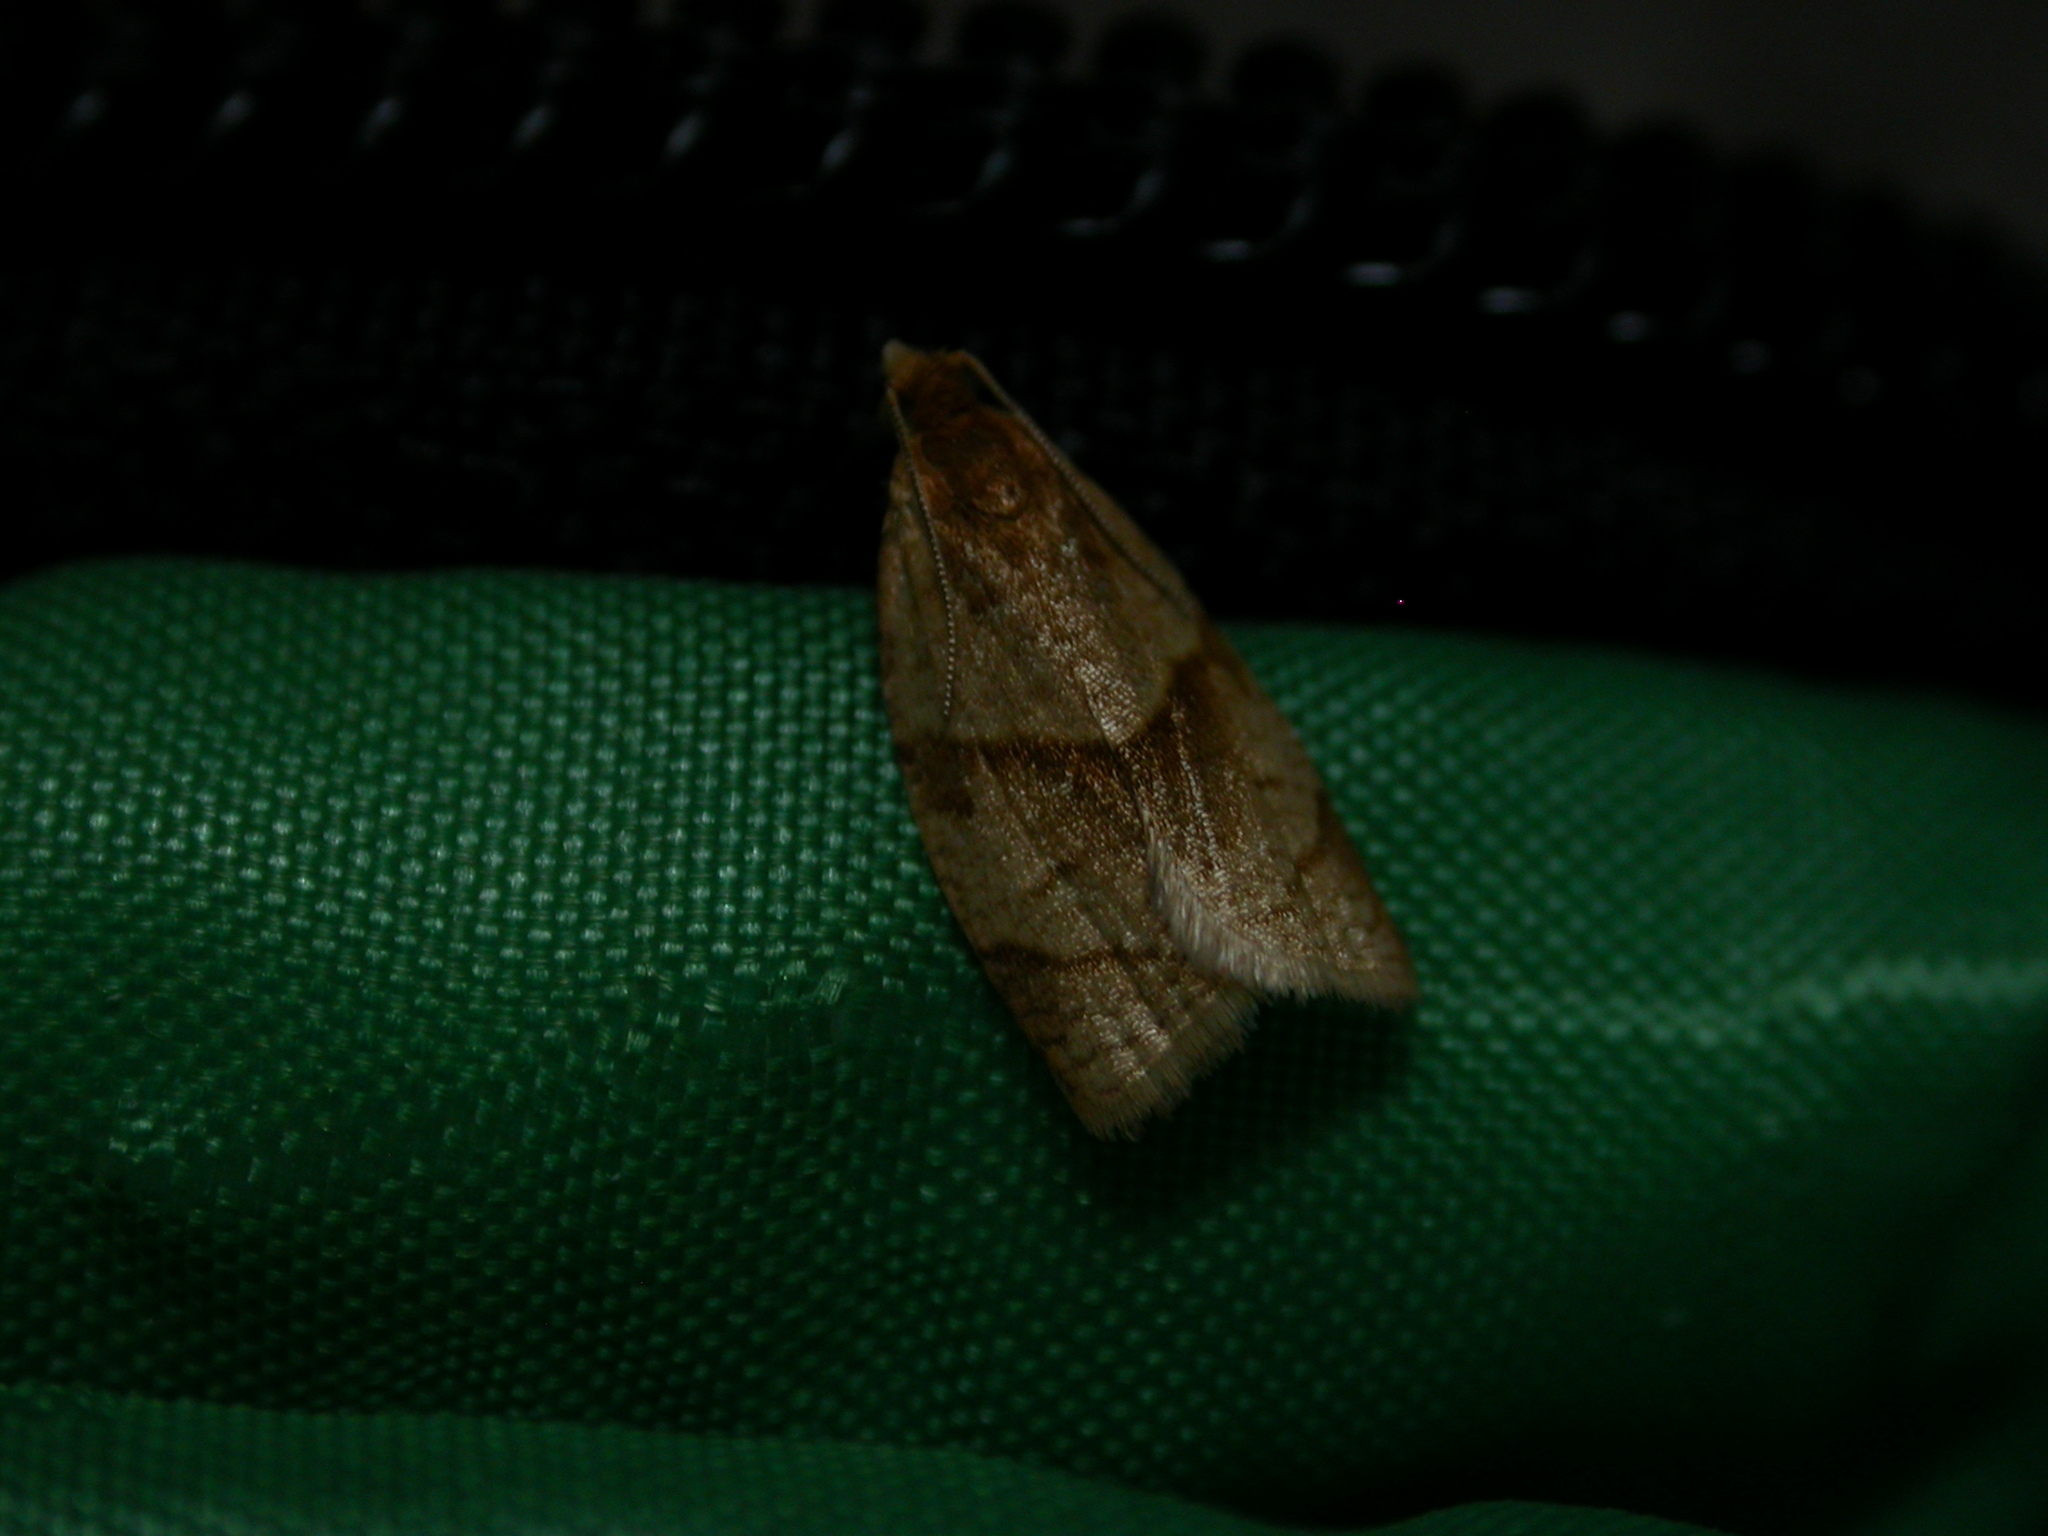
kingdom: Animalia
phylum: Arthropoda
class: Insecta
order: Lepidoptera
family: Tortricidae
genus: Clepsis
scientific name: Clepsis rurinana
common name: Pale twist
